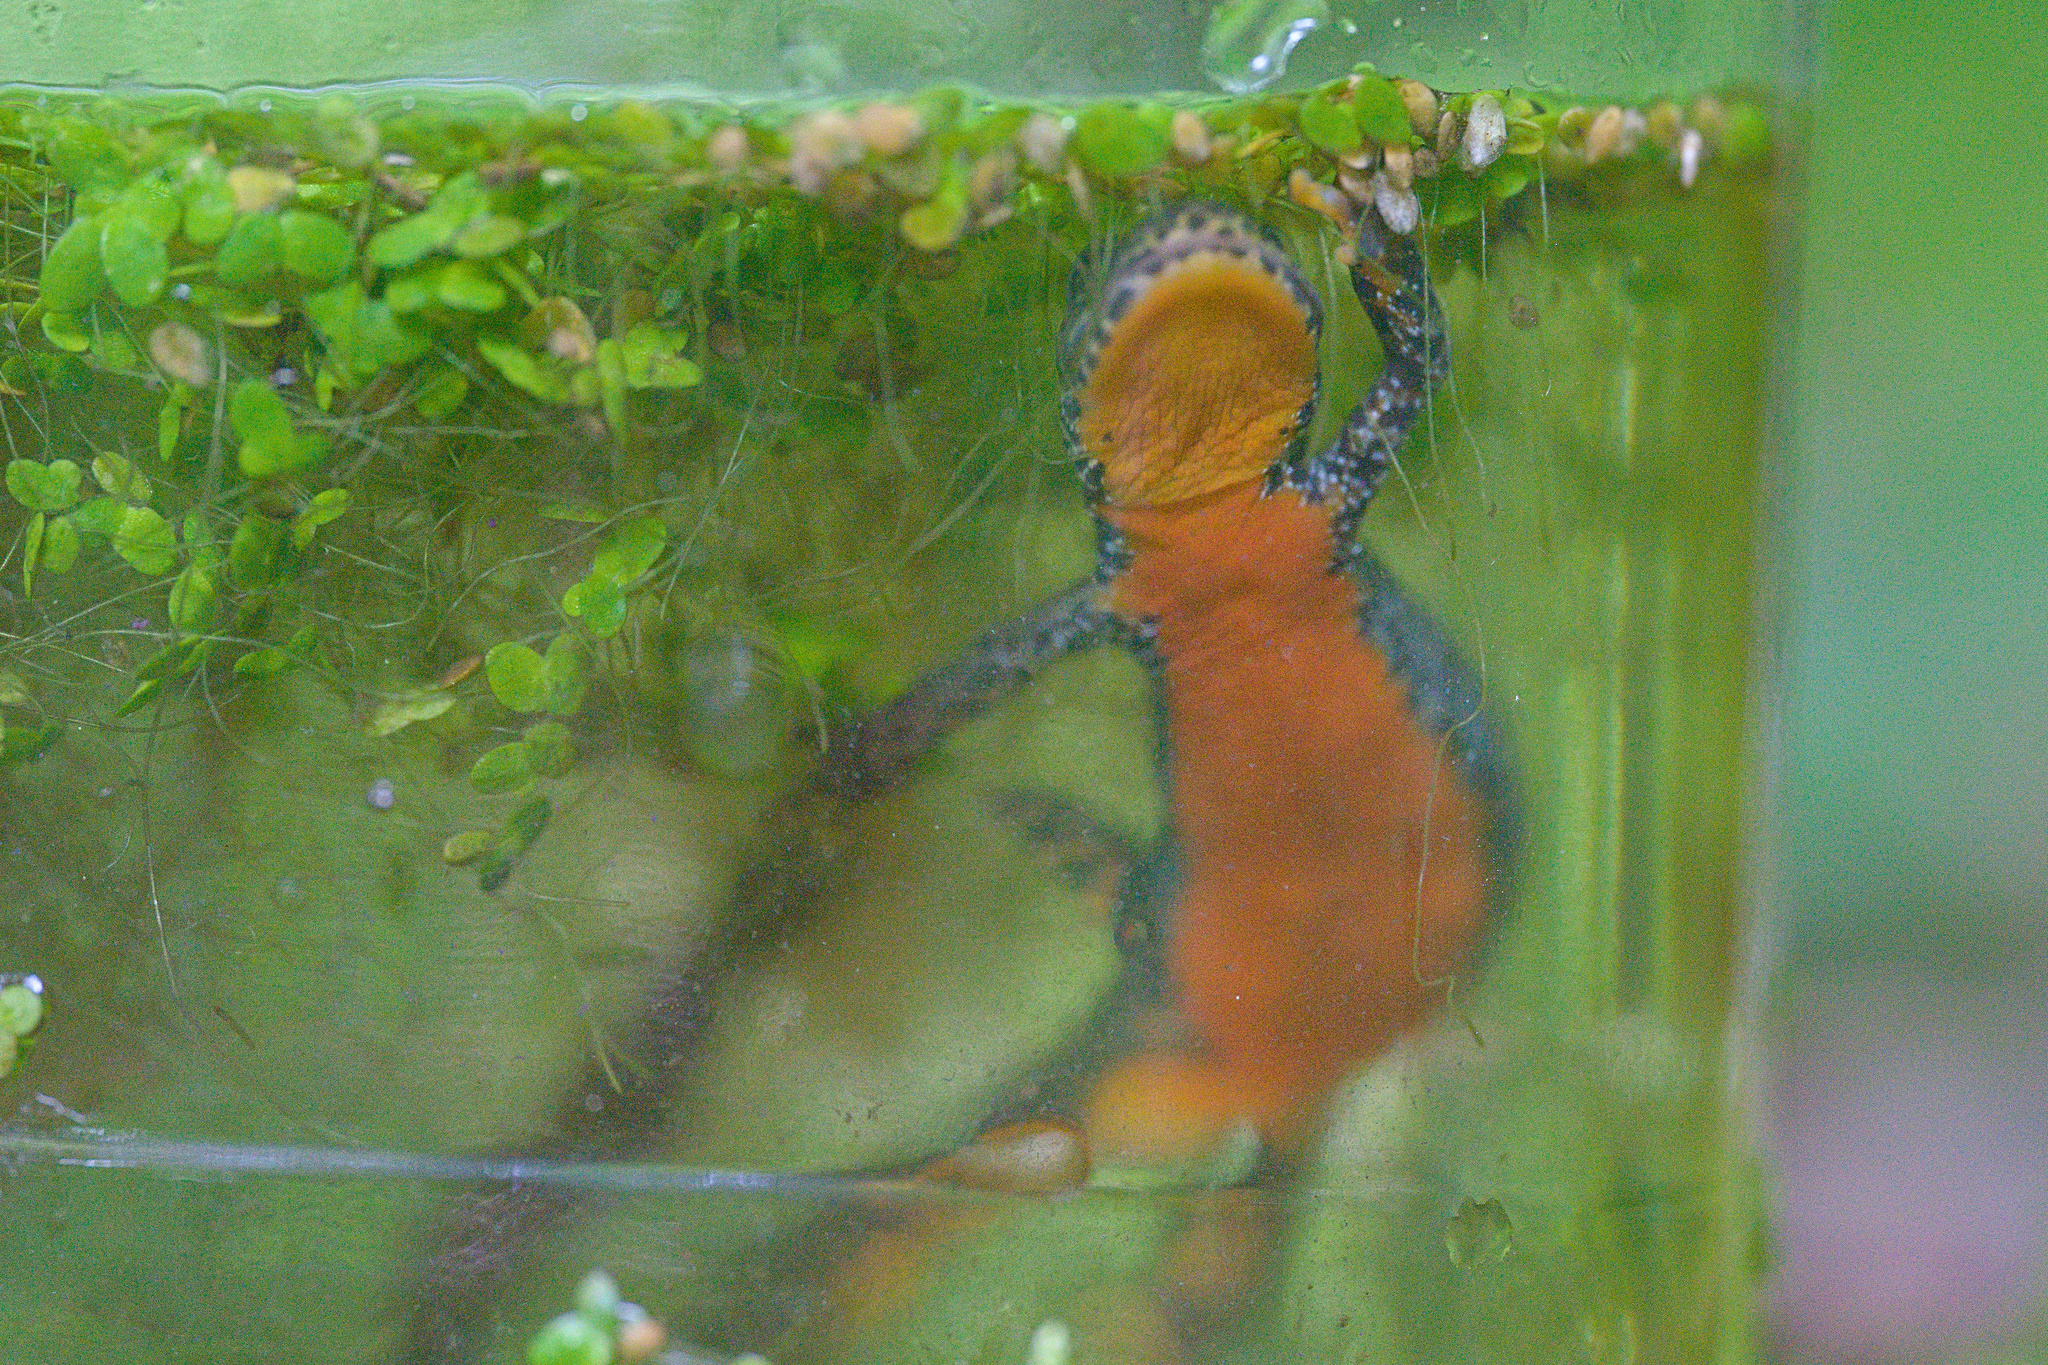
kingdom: Animalia
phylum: Chordata
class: Amphibia
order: Caudata
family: Salamandridae
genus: Ichthyosaura
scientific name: Ichthyosaura alpestris
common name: Alpine newt
